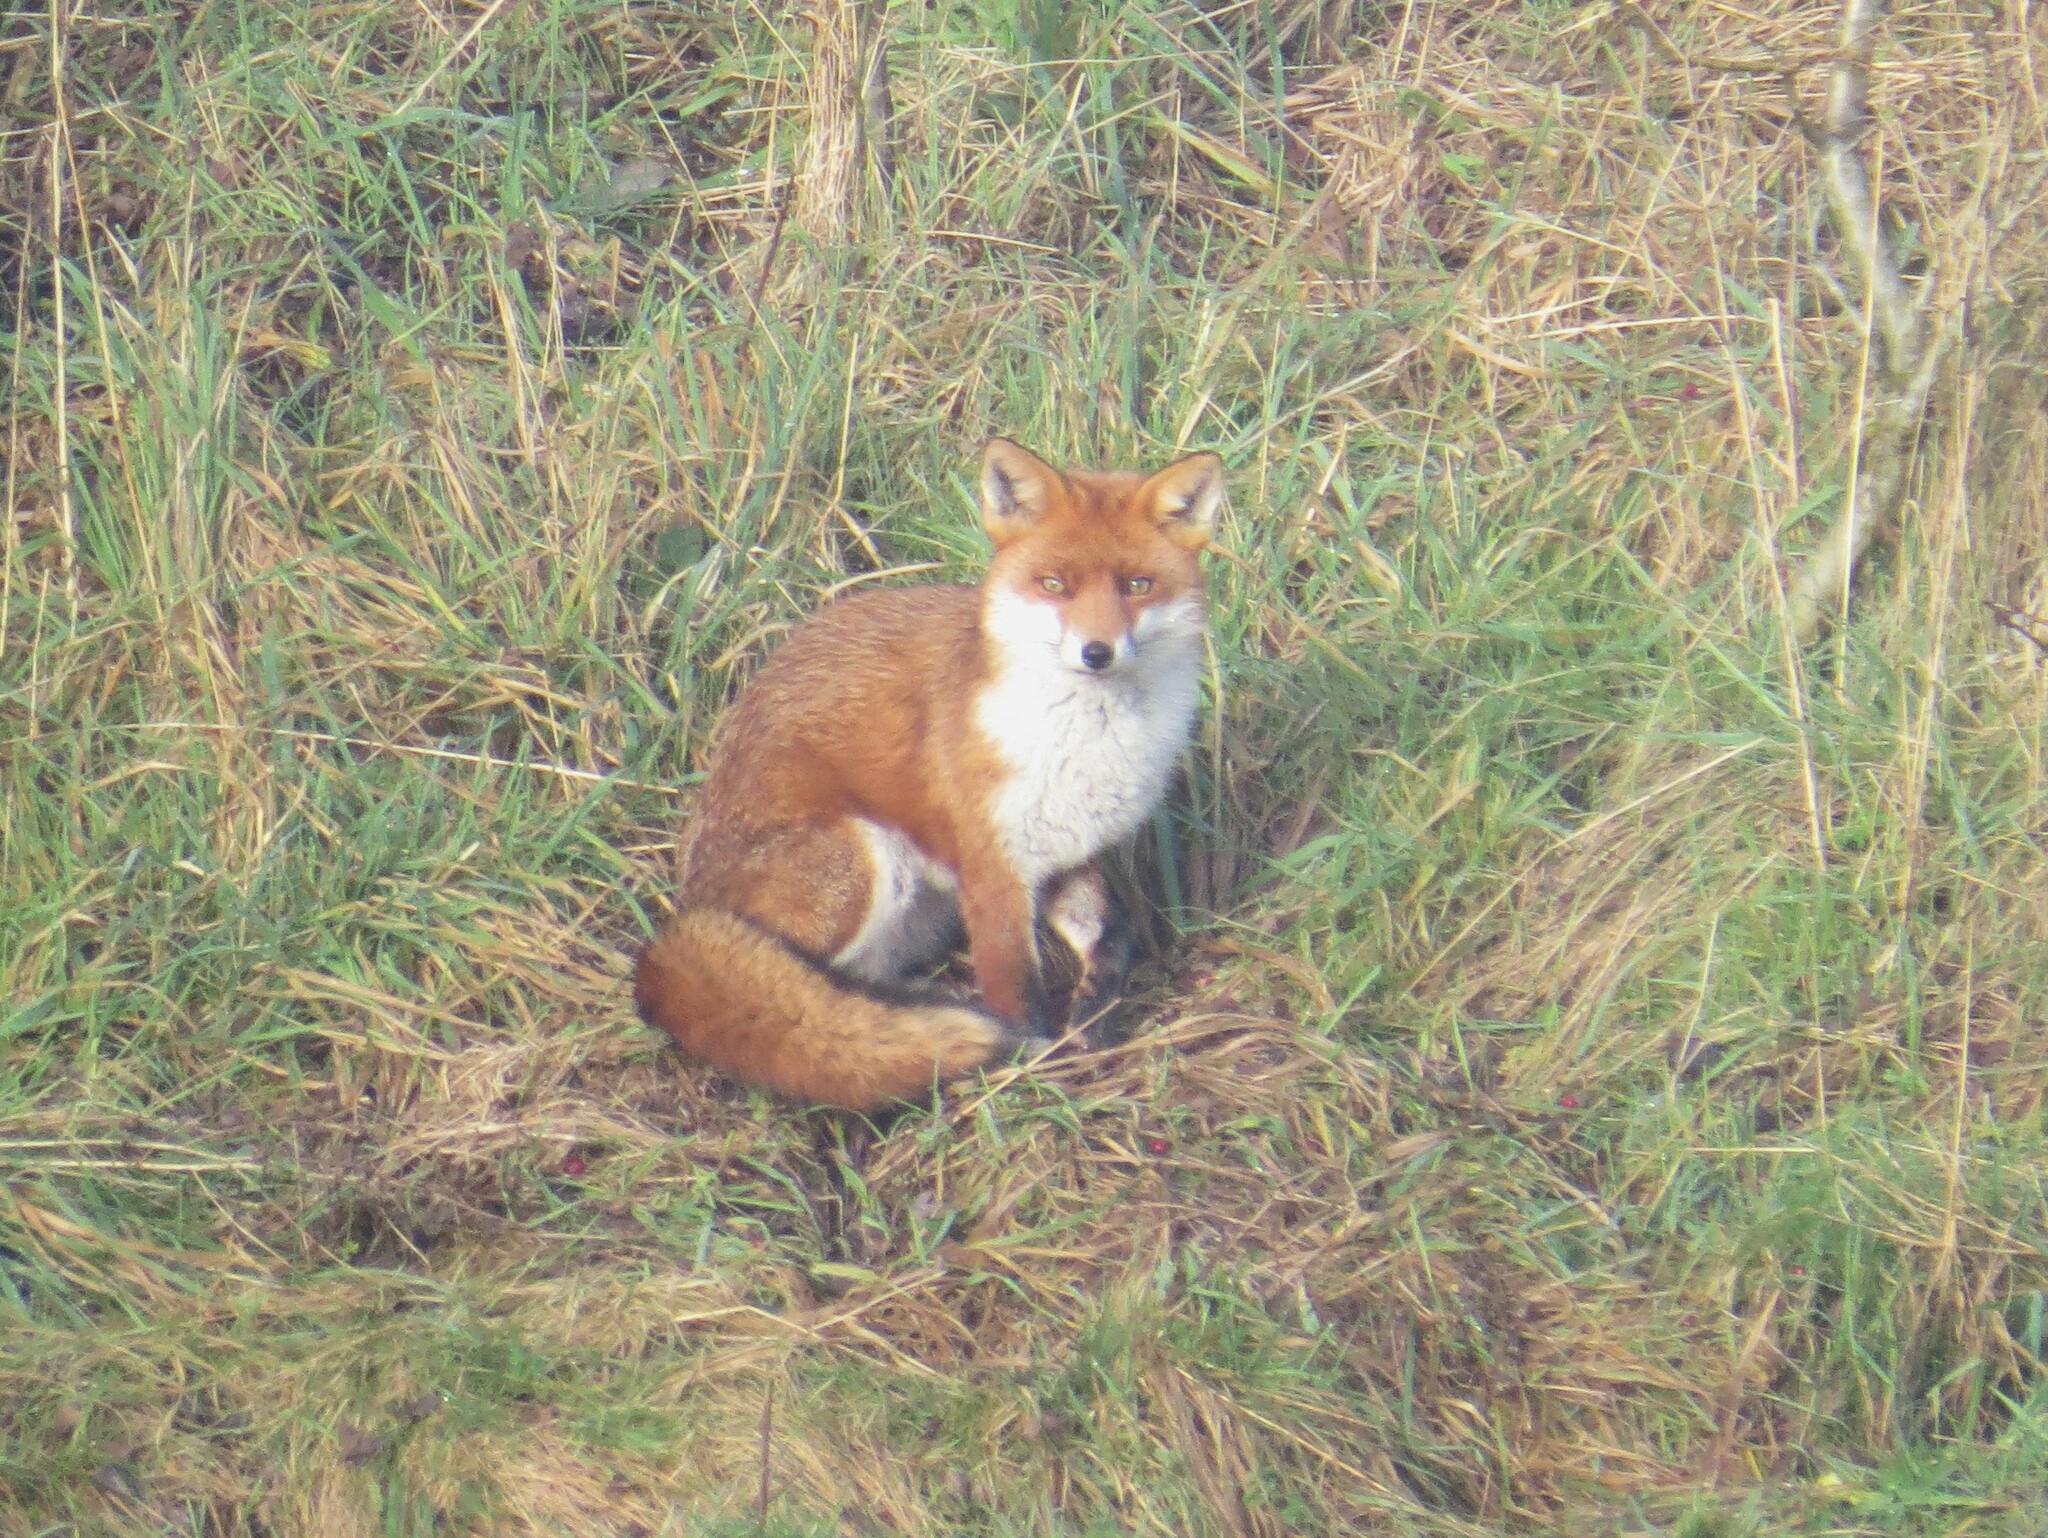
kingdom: Animalia
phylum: Chordata
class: Mammalia
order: Carnivora
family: Canidae
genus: Vulpes
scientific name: Vulpes vulpes
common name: Red fox
